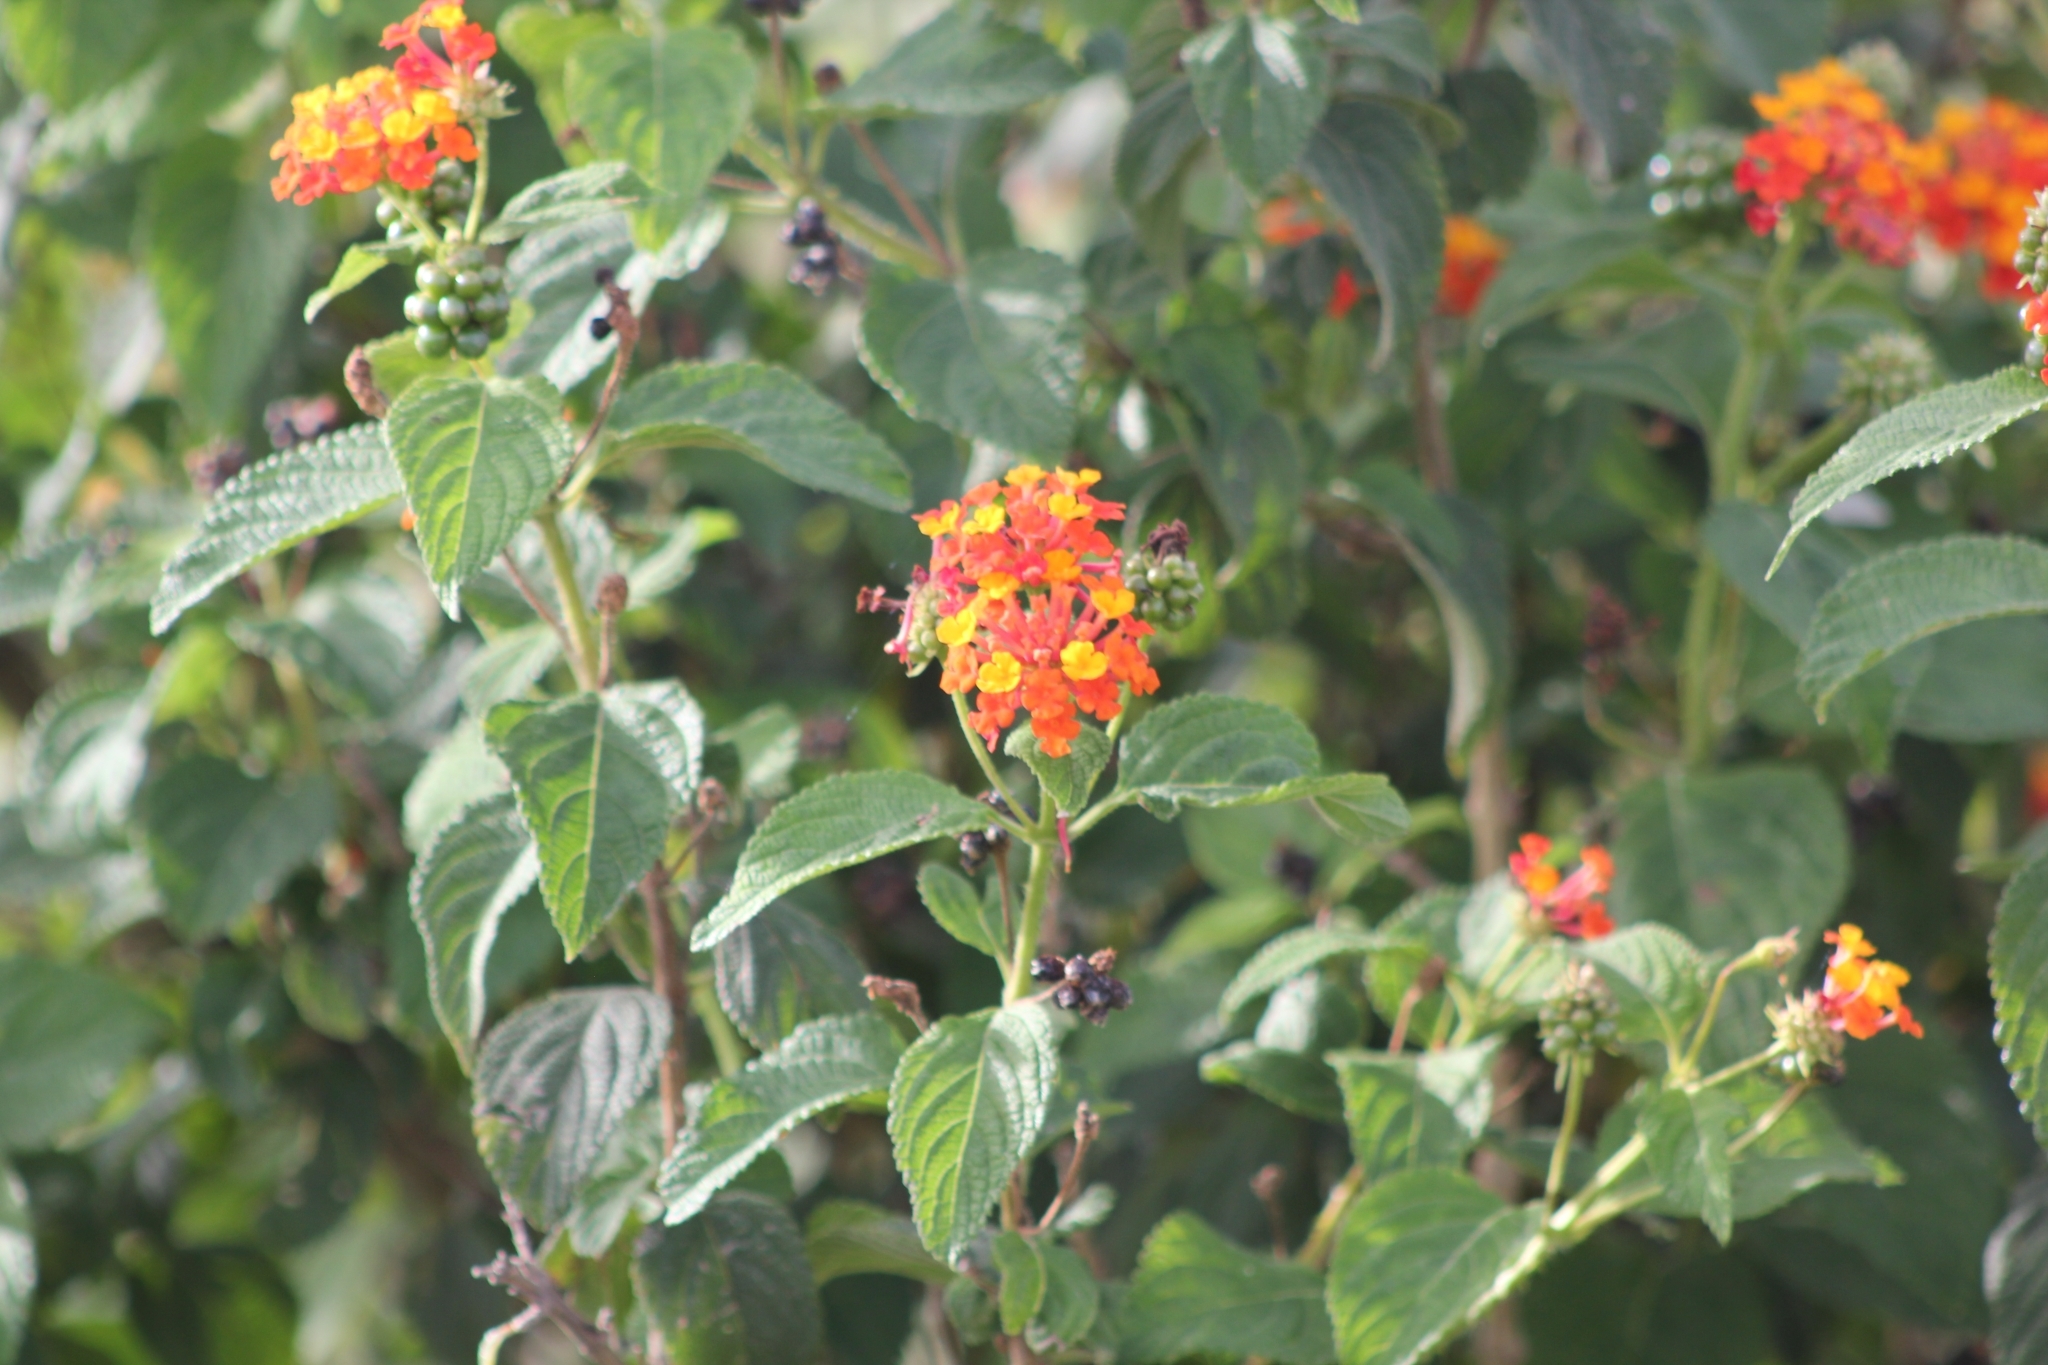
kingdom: Plantae
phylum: Tracheophyta
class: Magnoliopsida
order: Lamiales
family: Verbenaceae
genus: Lantana
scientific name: Lantana camara
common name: Lantana
